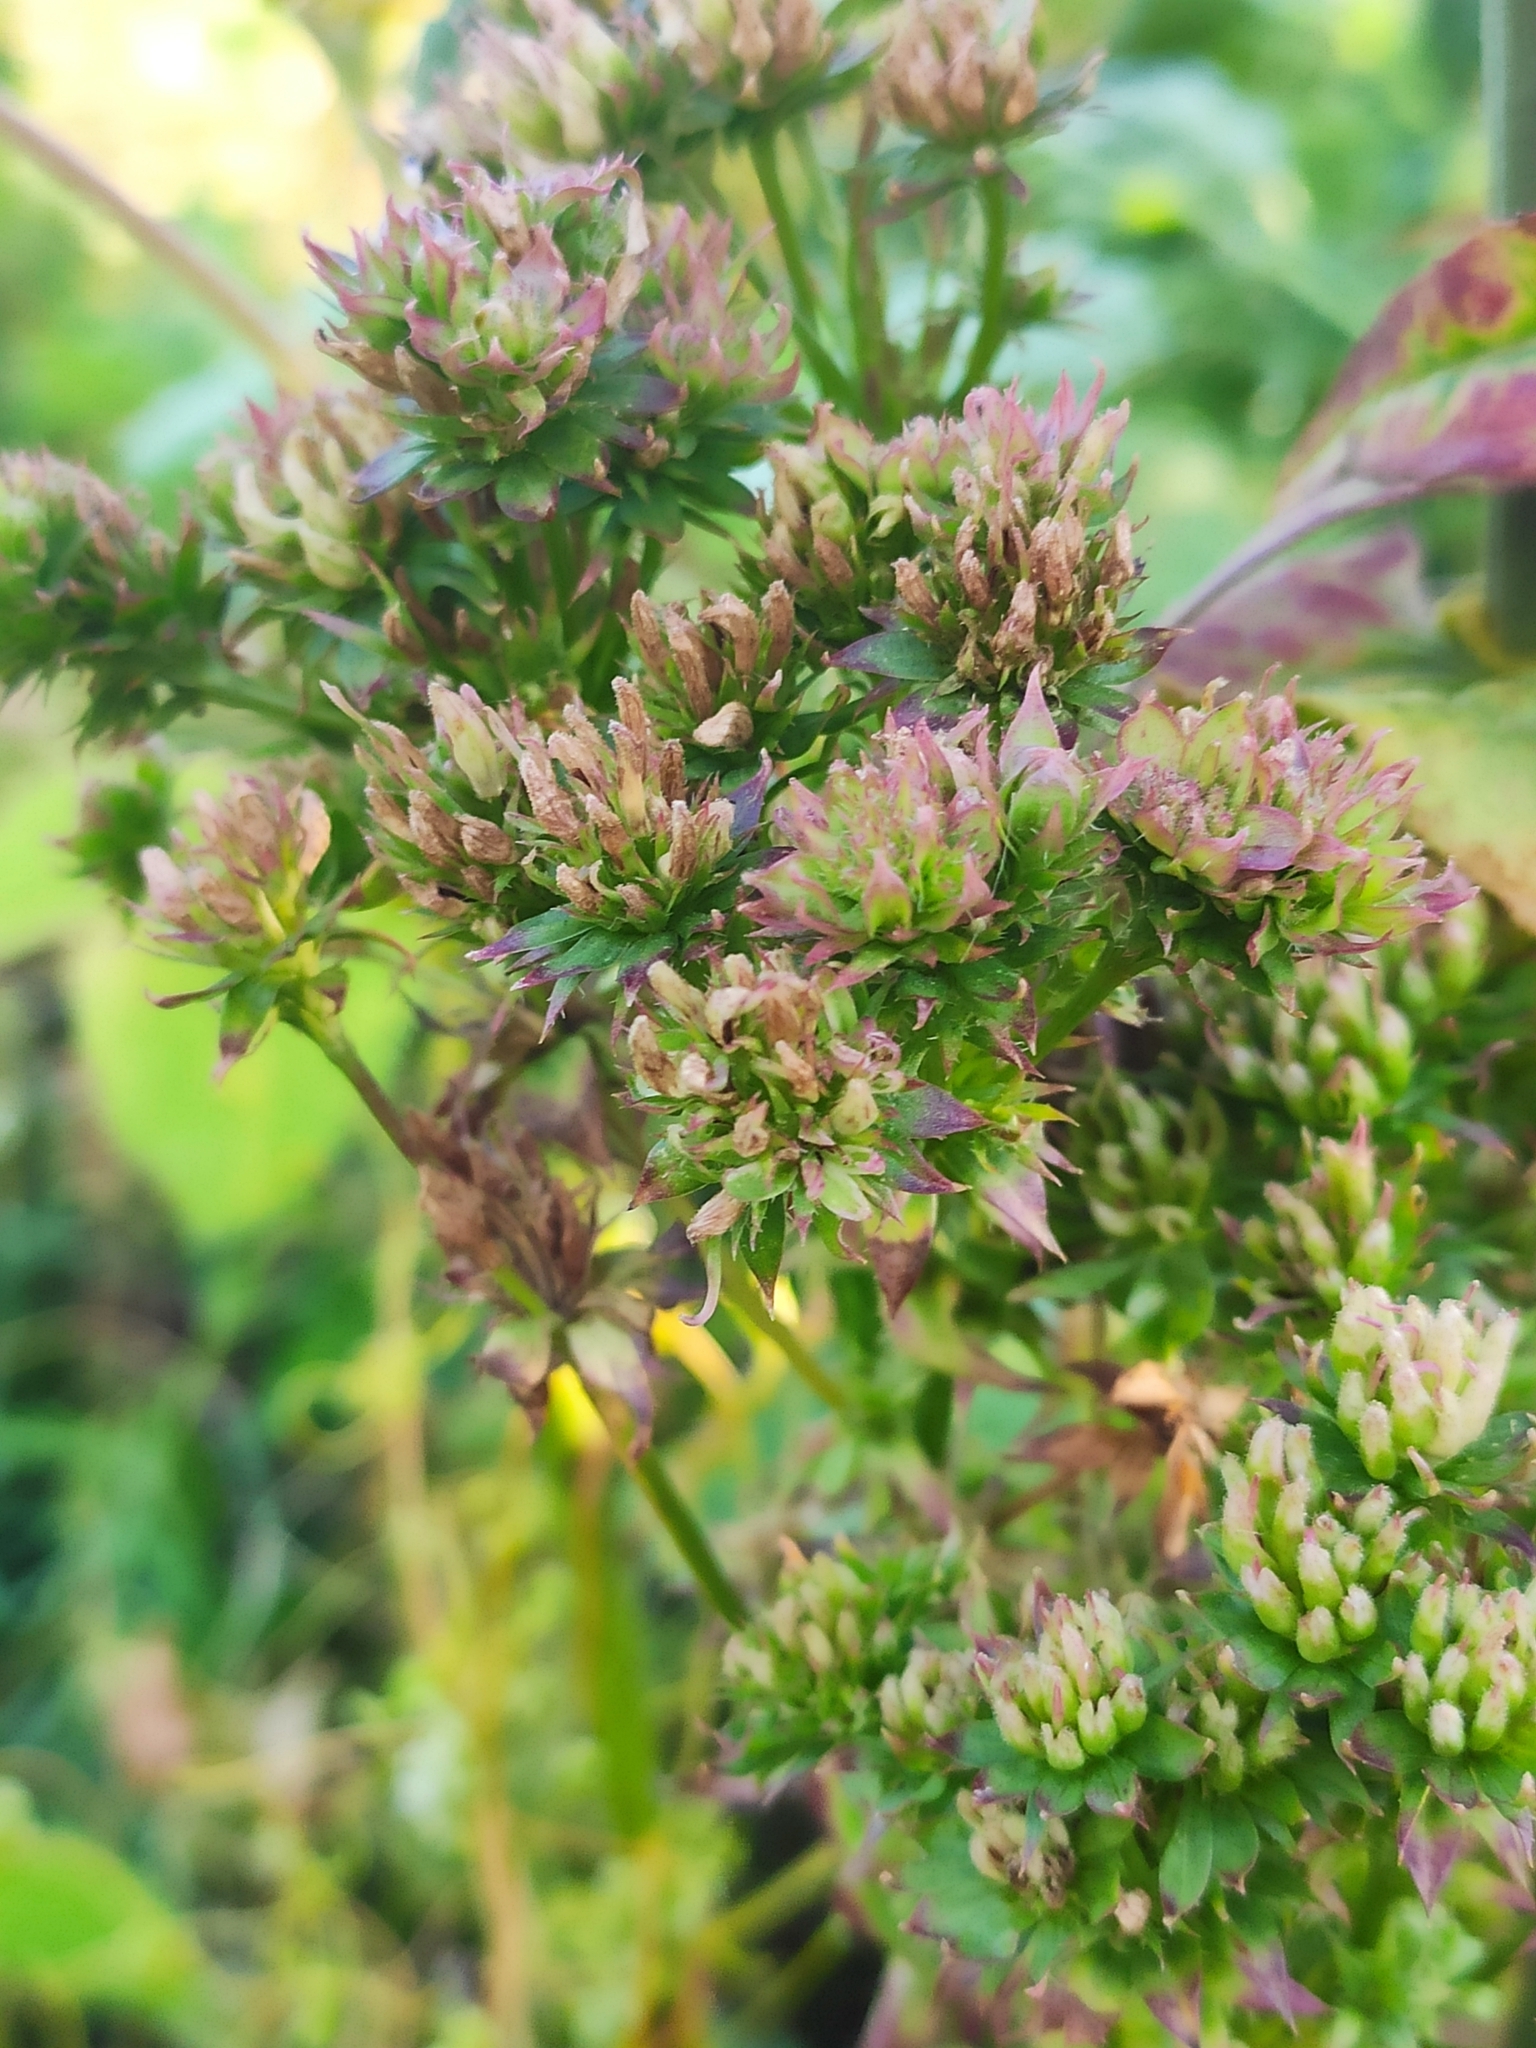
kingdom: Plantae
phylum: Tracheophyta
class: Magnoliopsida
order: Asterales
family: Asteraceae
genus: Cichorium
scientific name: Cichorium intybus
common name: Chicory
